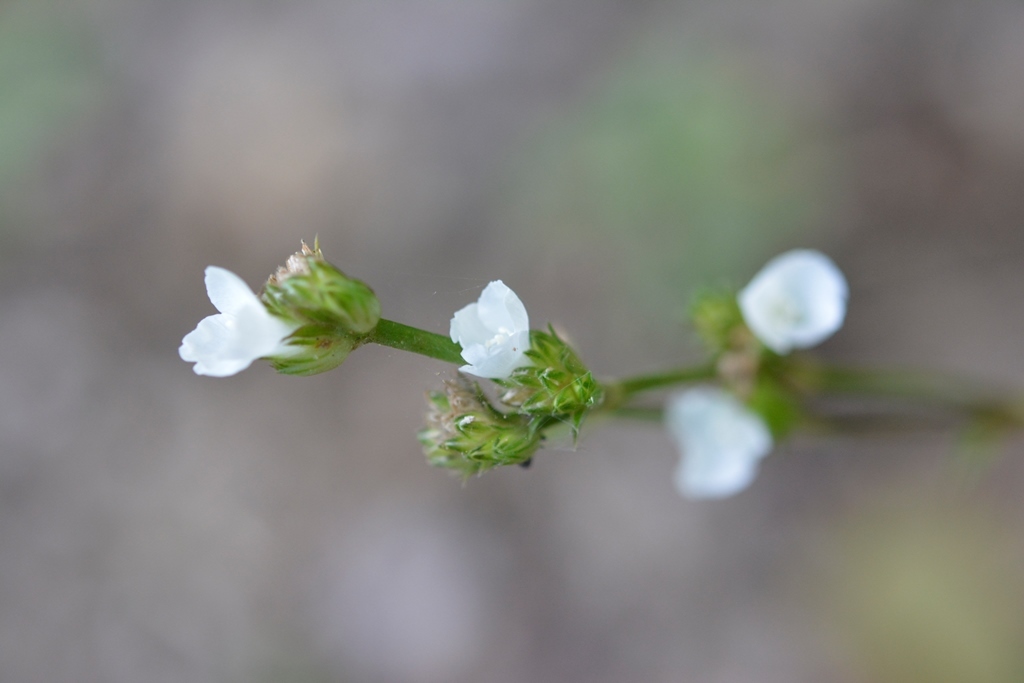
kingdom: Plantae
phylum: Tracheophyta
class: Liliopsida
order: Commelinales
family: Commelinaceae
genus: Callisia
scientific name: Callisia gentlei
